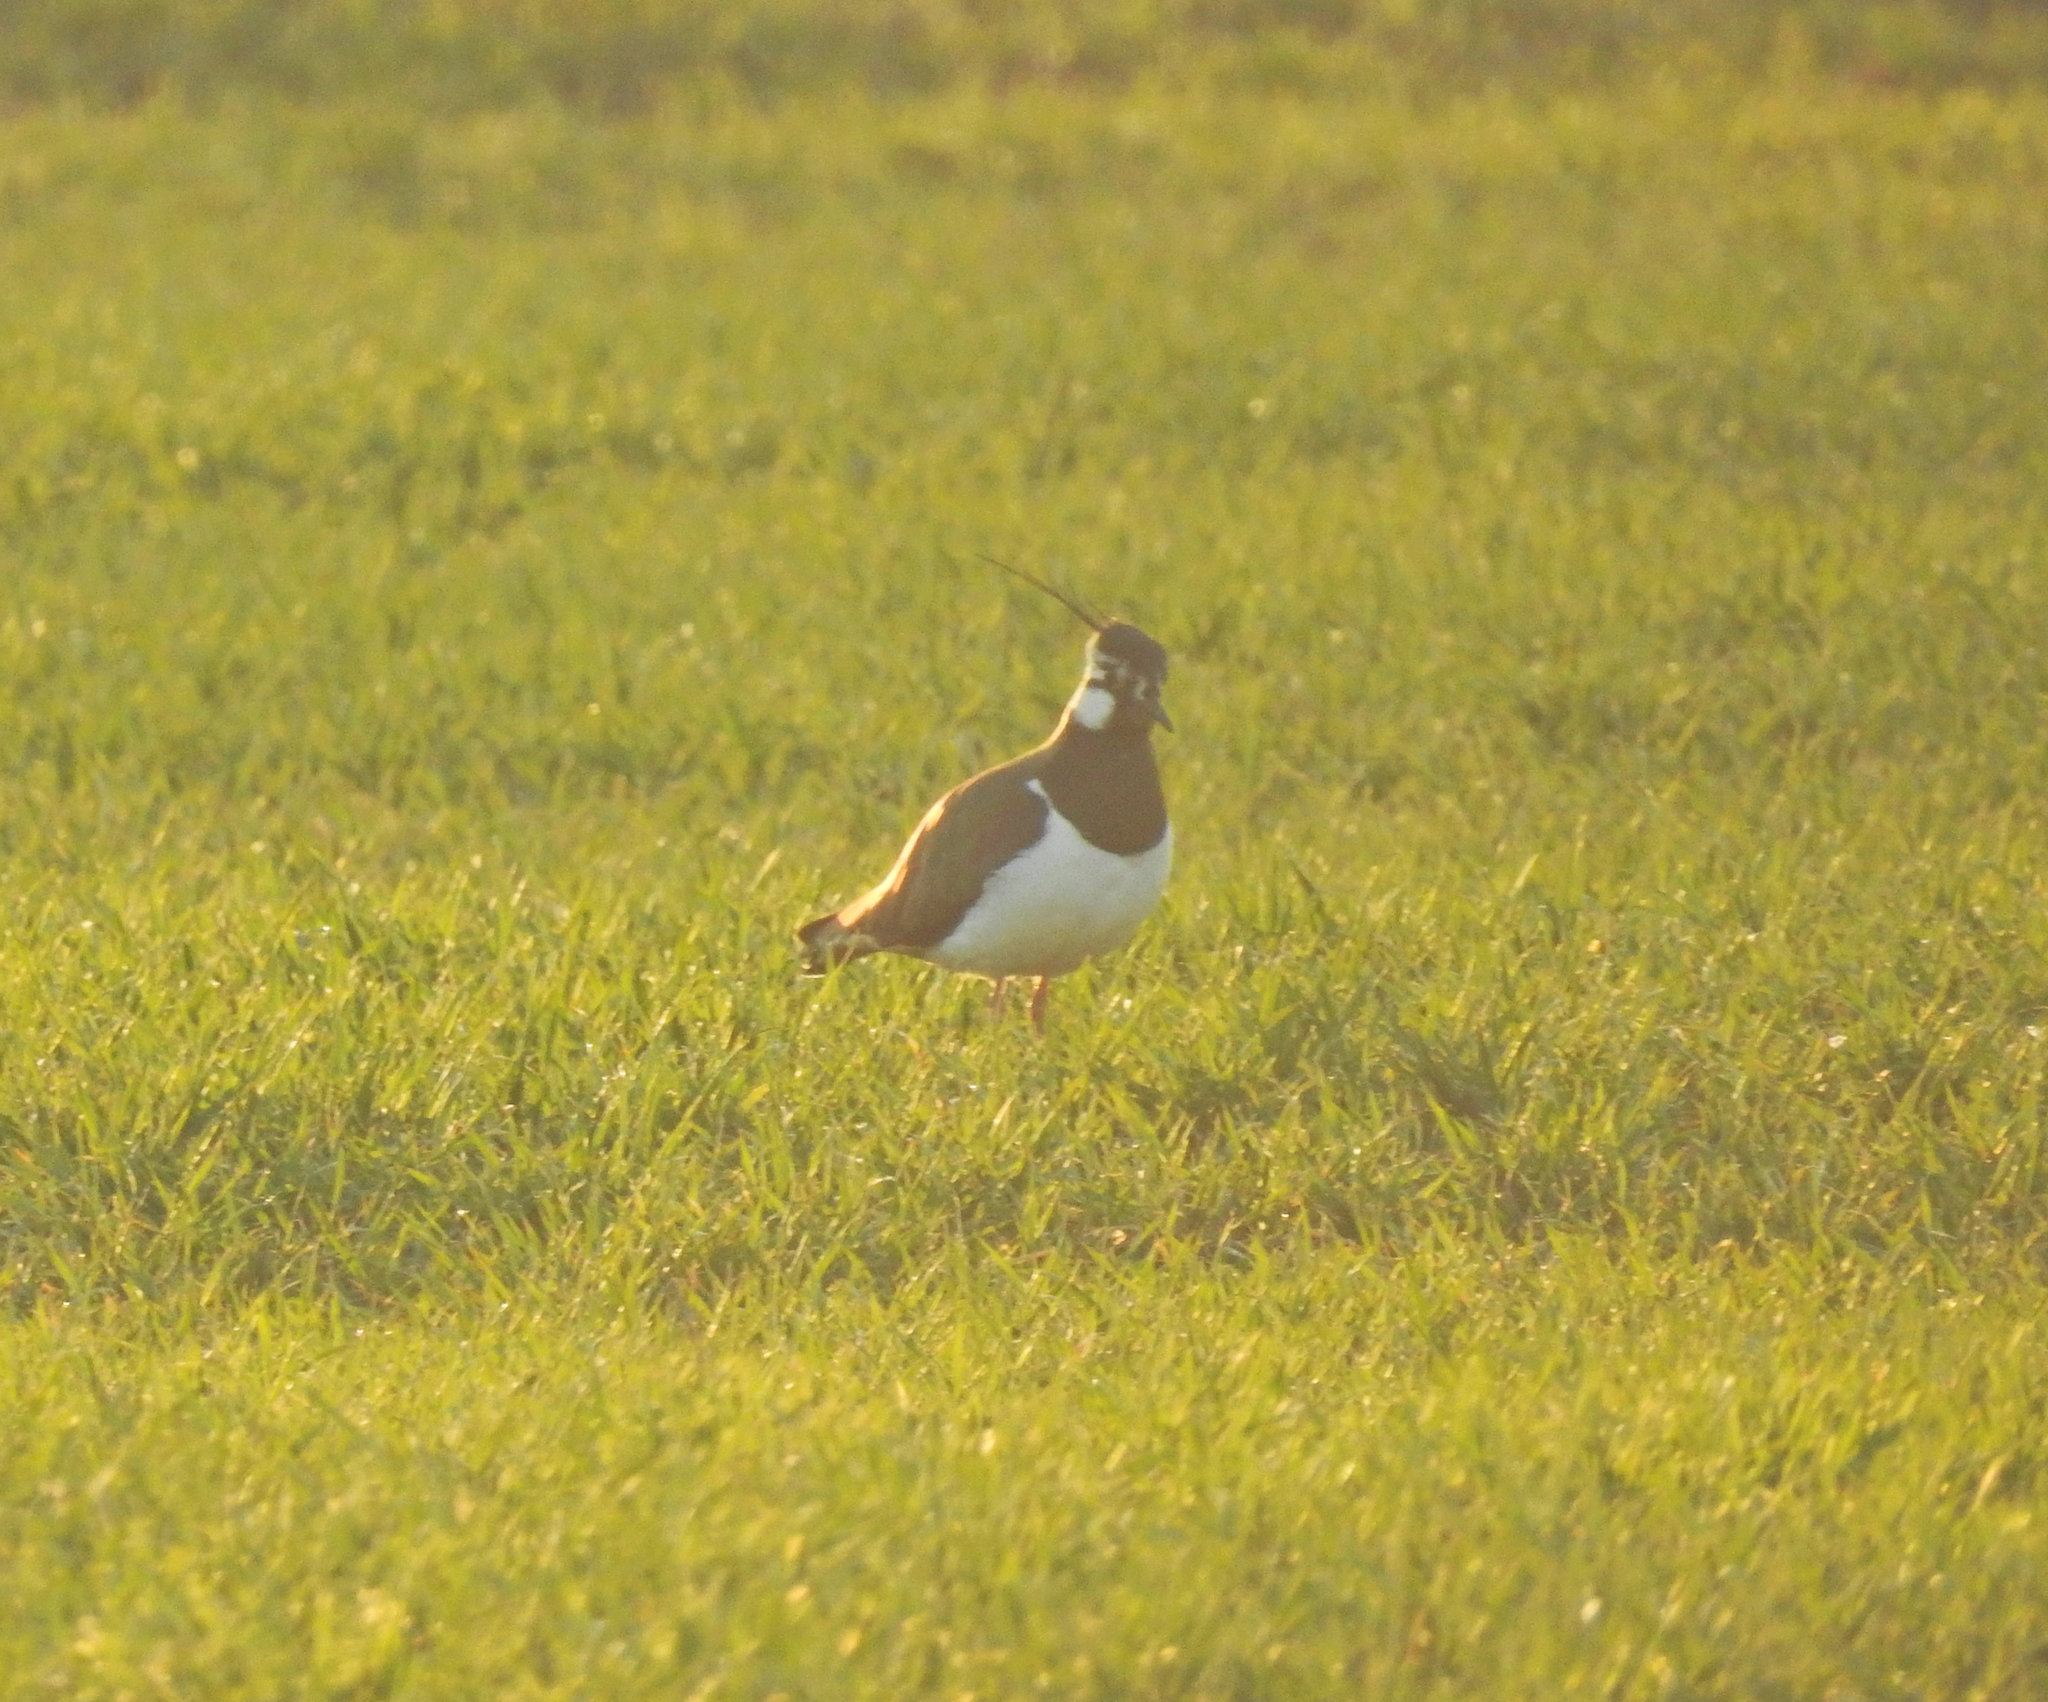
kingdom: Animalia
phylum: Chordata
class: Aves
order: Charadriiformes
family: Charadriidae
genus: Vanellus
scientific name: Vanellus vanellus
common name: Northern lapwing
